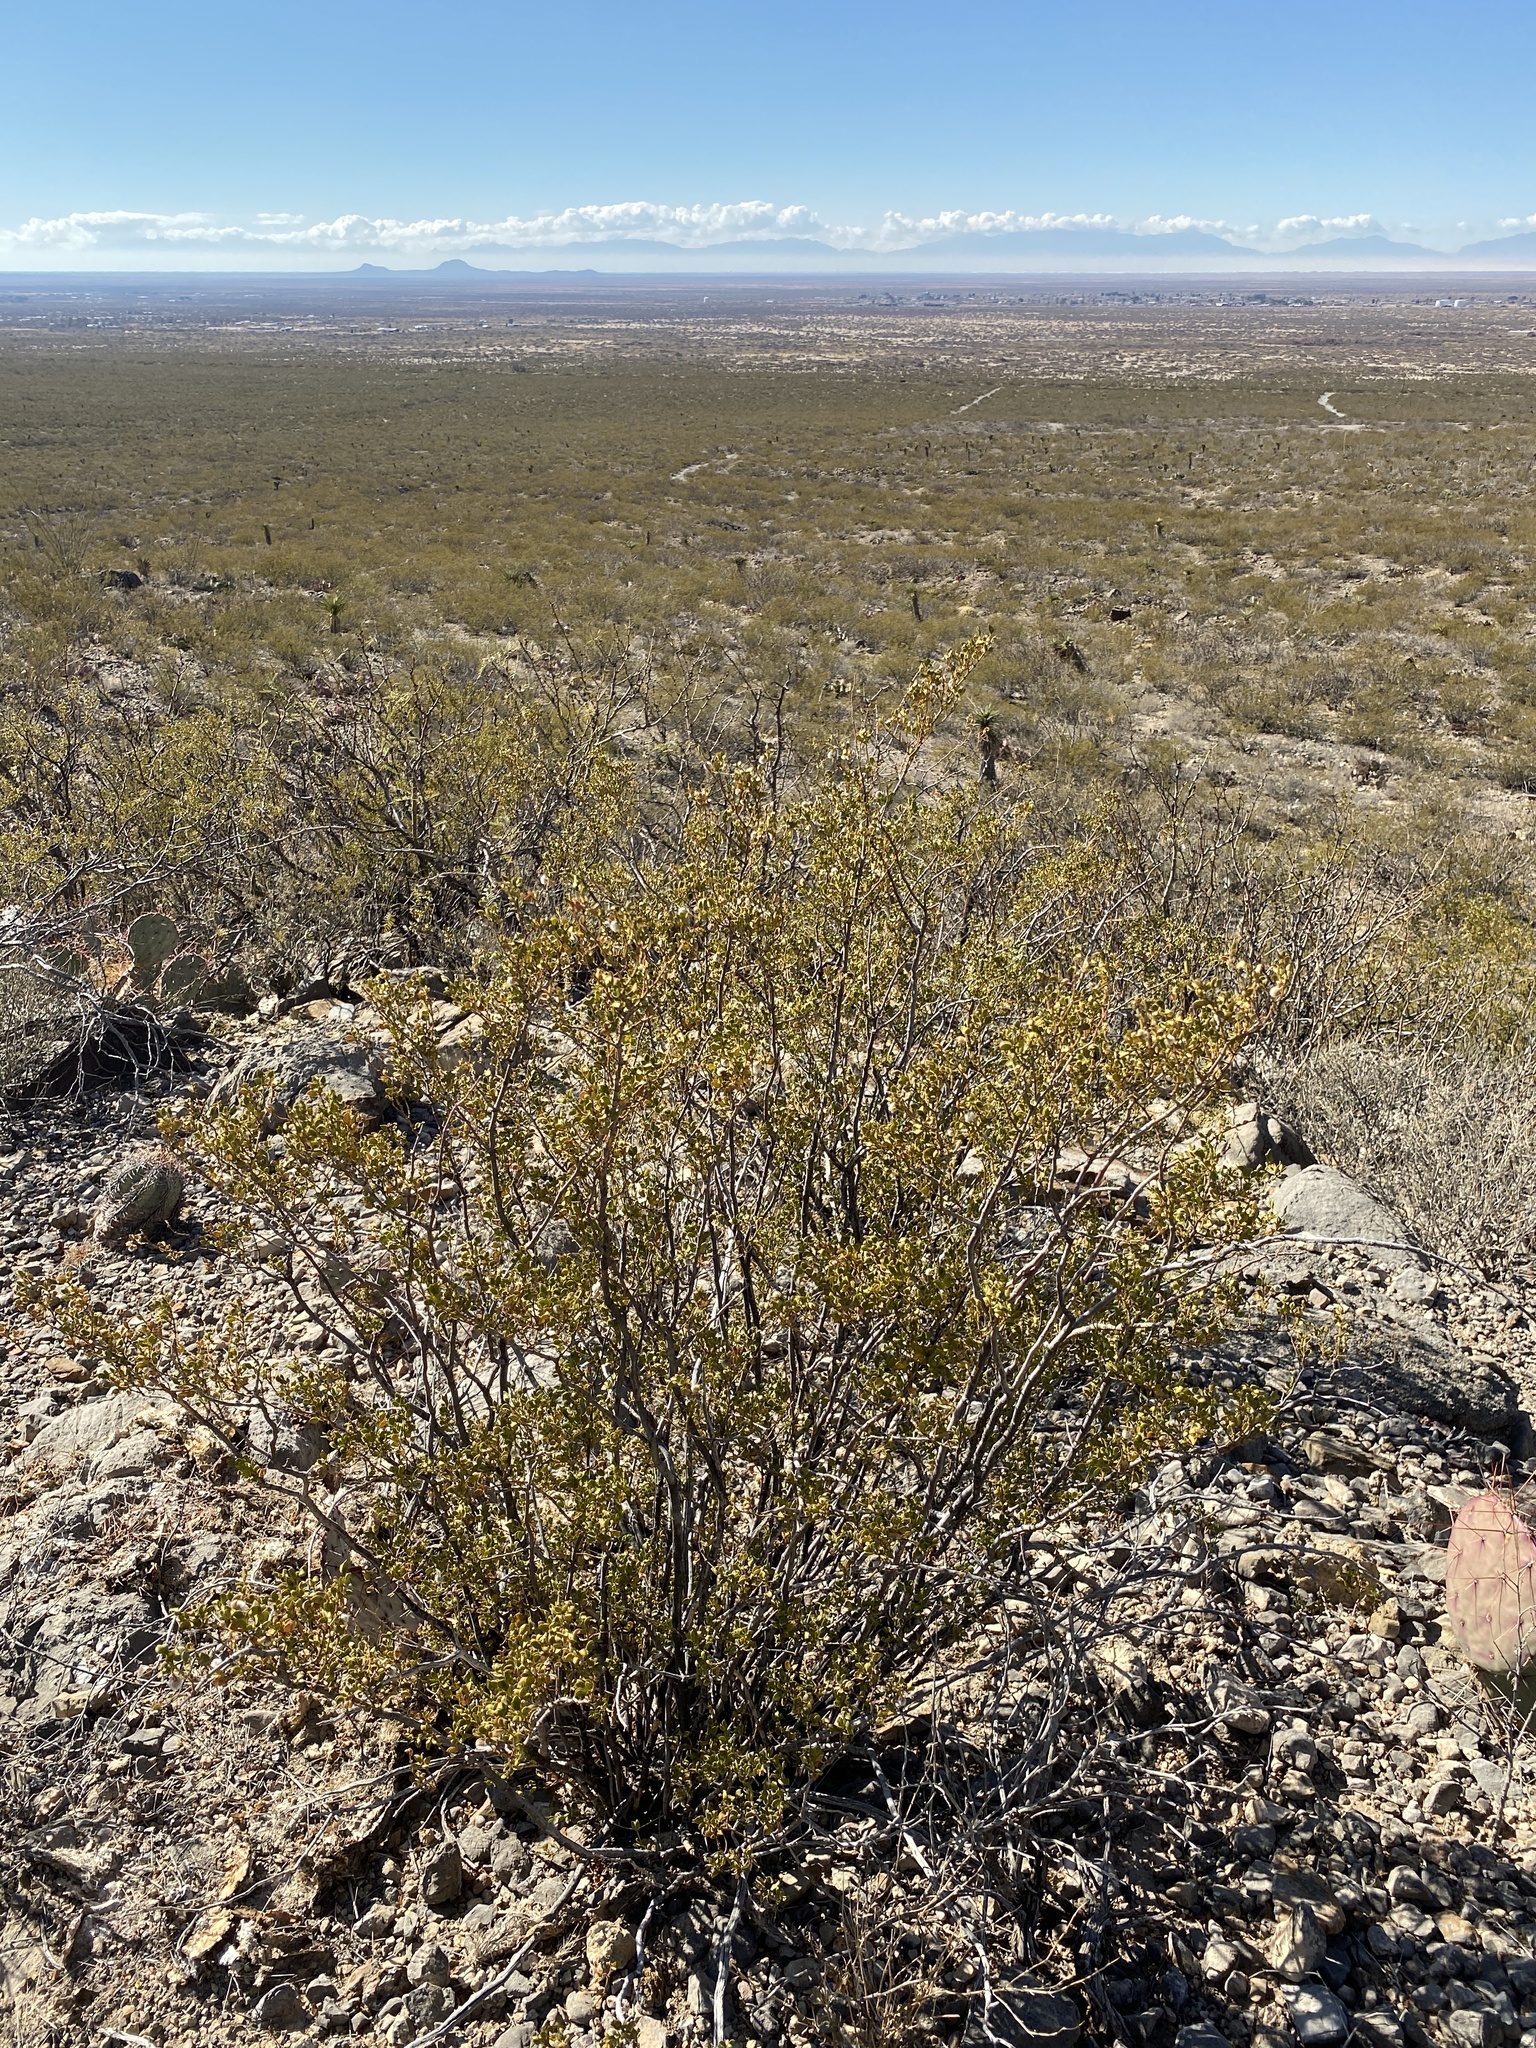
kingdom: Plantae
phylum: Tracheophyta
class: Magnoliopsida
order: Zygophyllales
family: Zygophyllaceae
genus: Larrea
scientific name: Larrea tridentata
